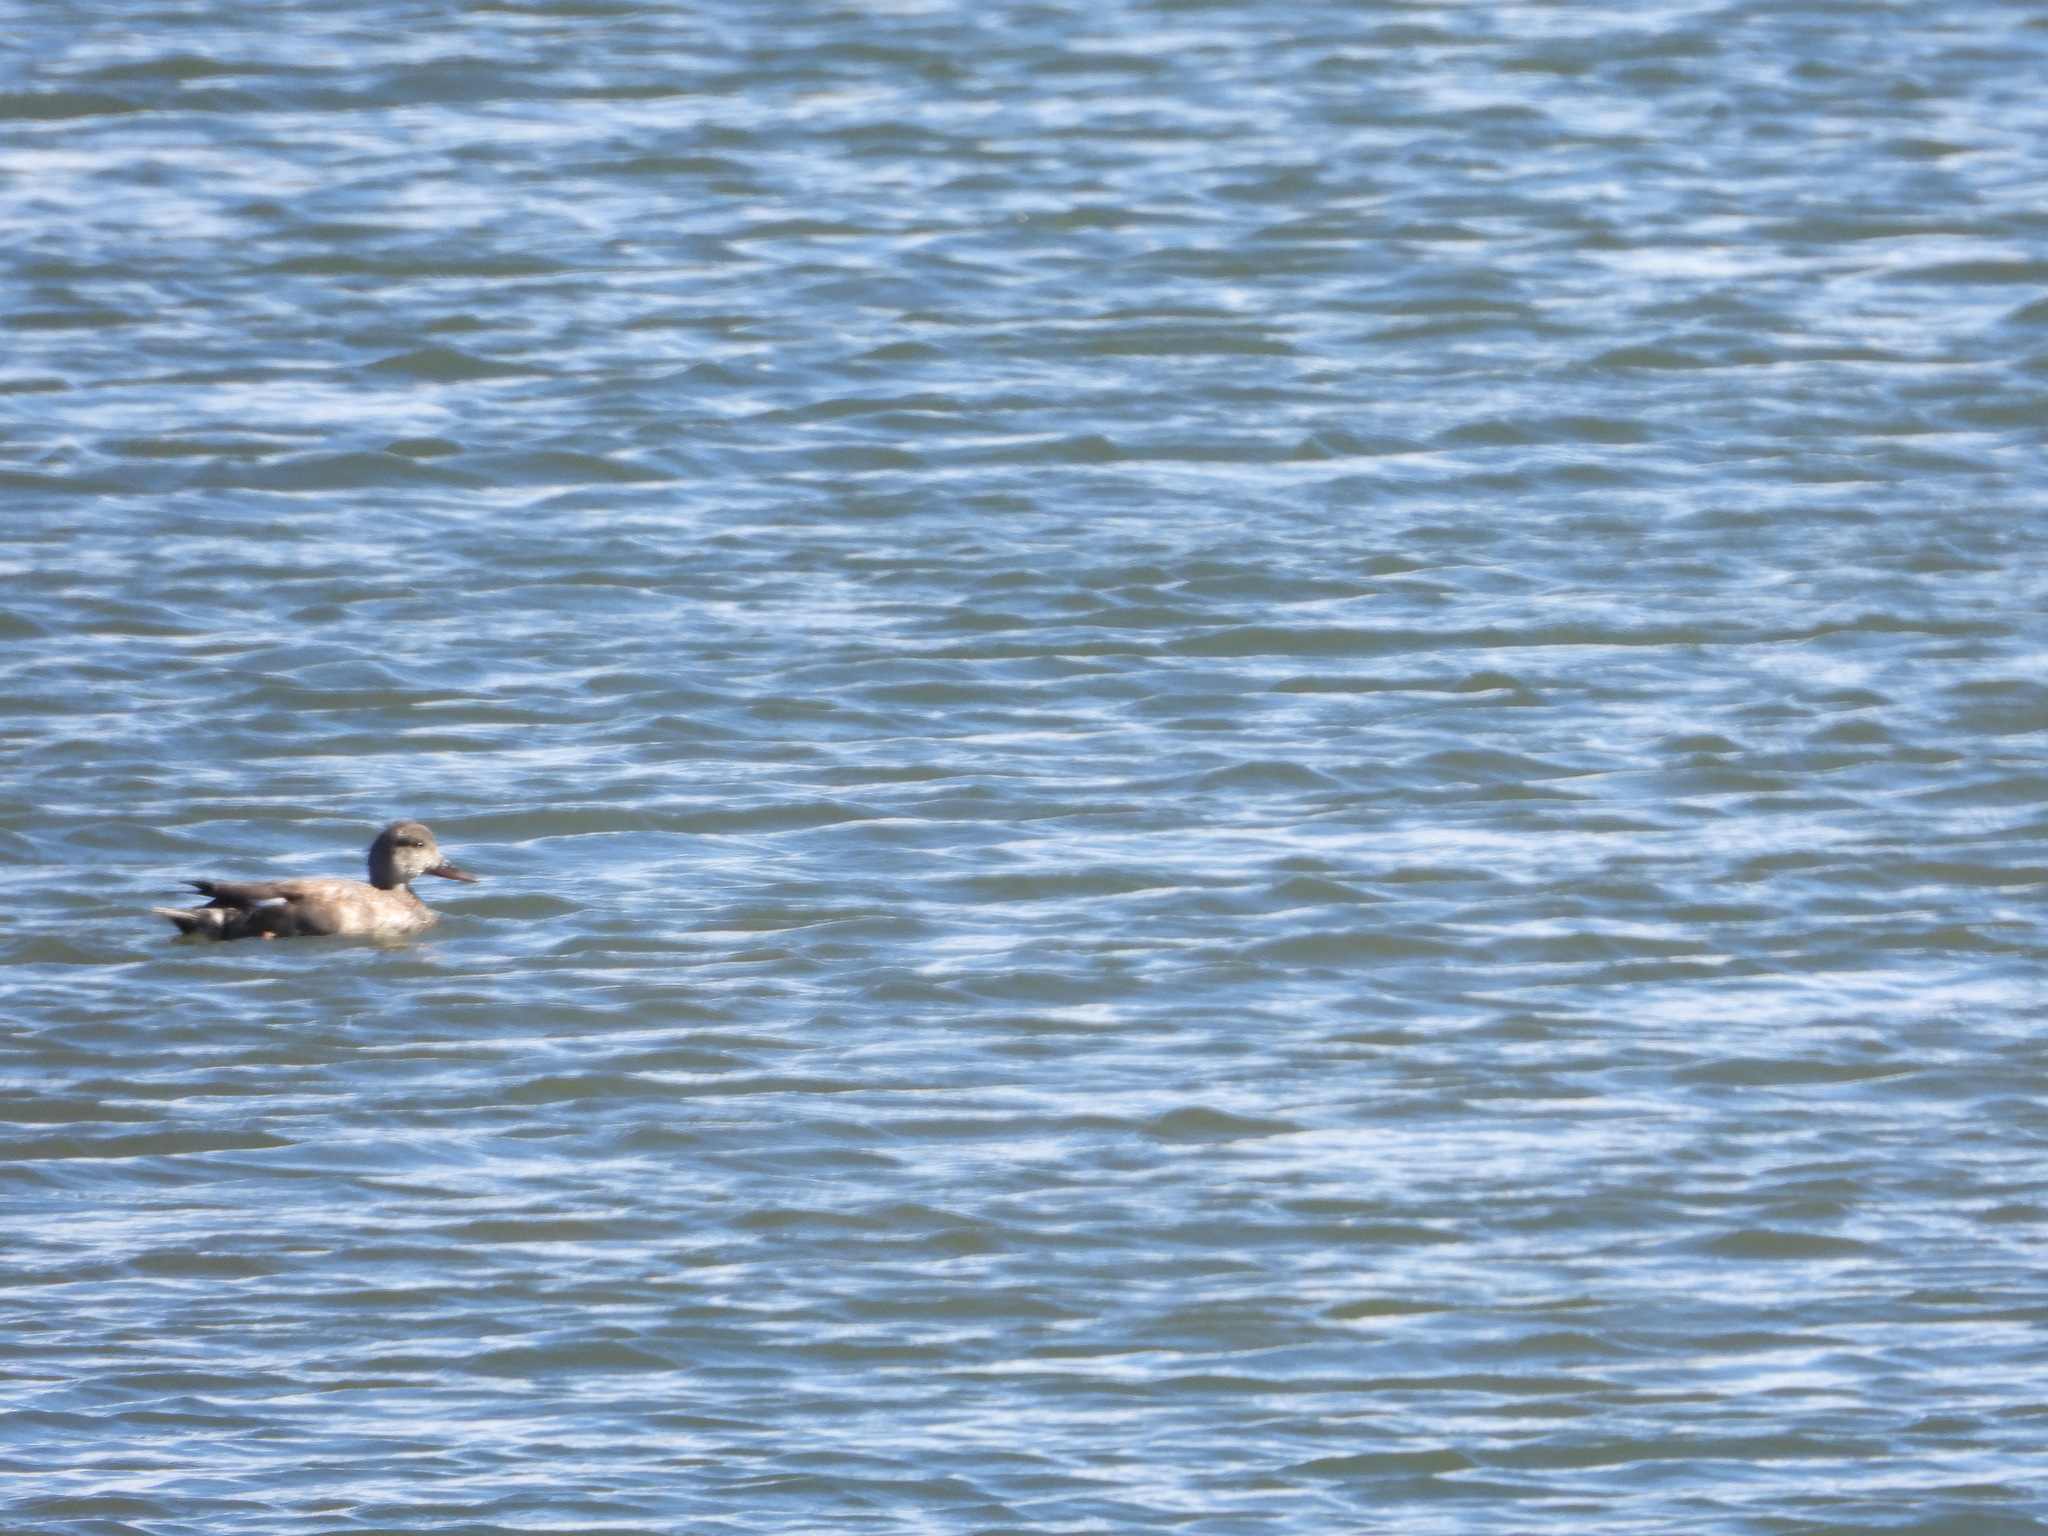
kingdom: Animalia
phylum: Chordata
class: Aves
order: Anseriformes
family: Anatidae
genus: Mareca
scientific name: Mareca strepera
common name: Gadwall
